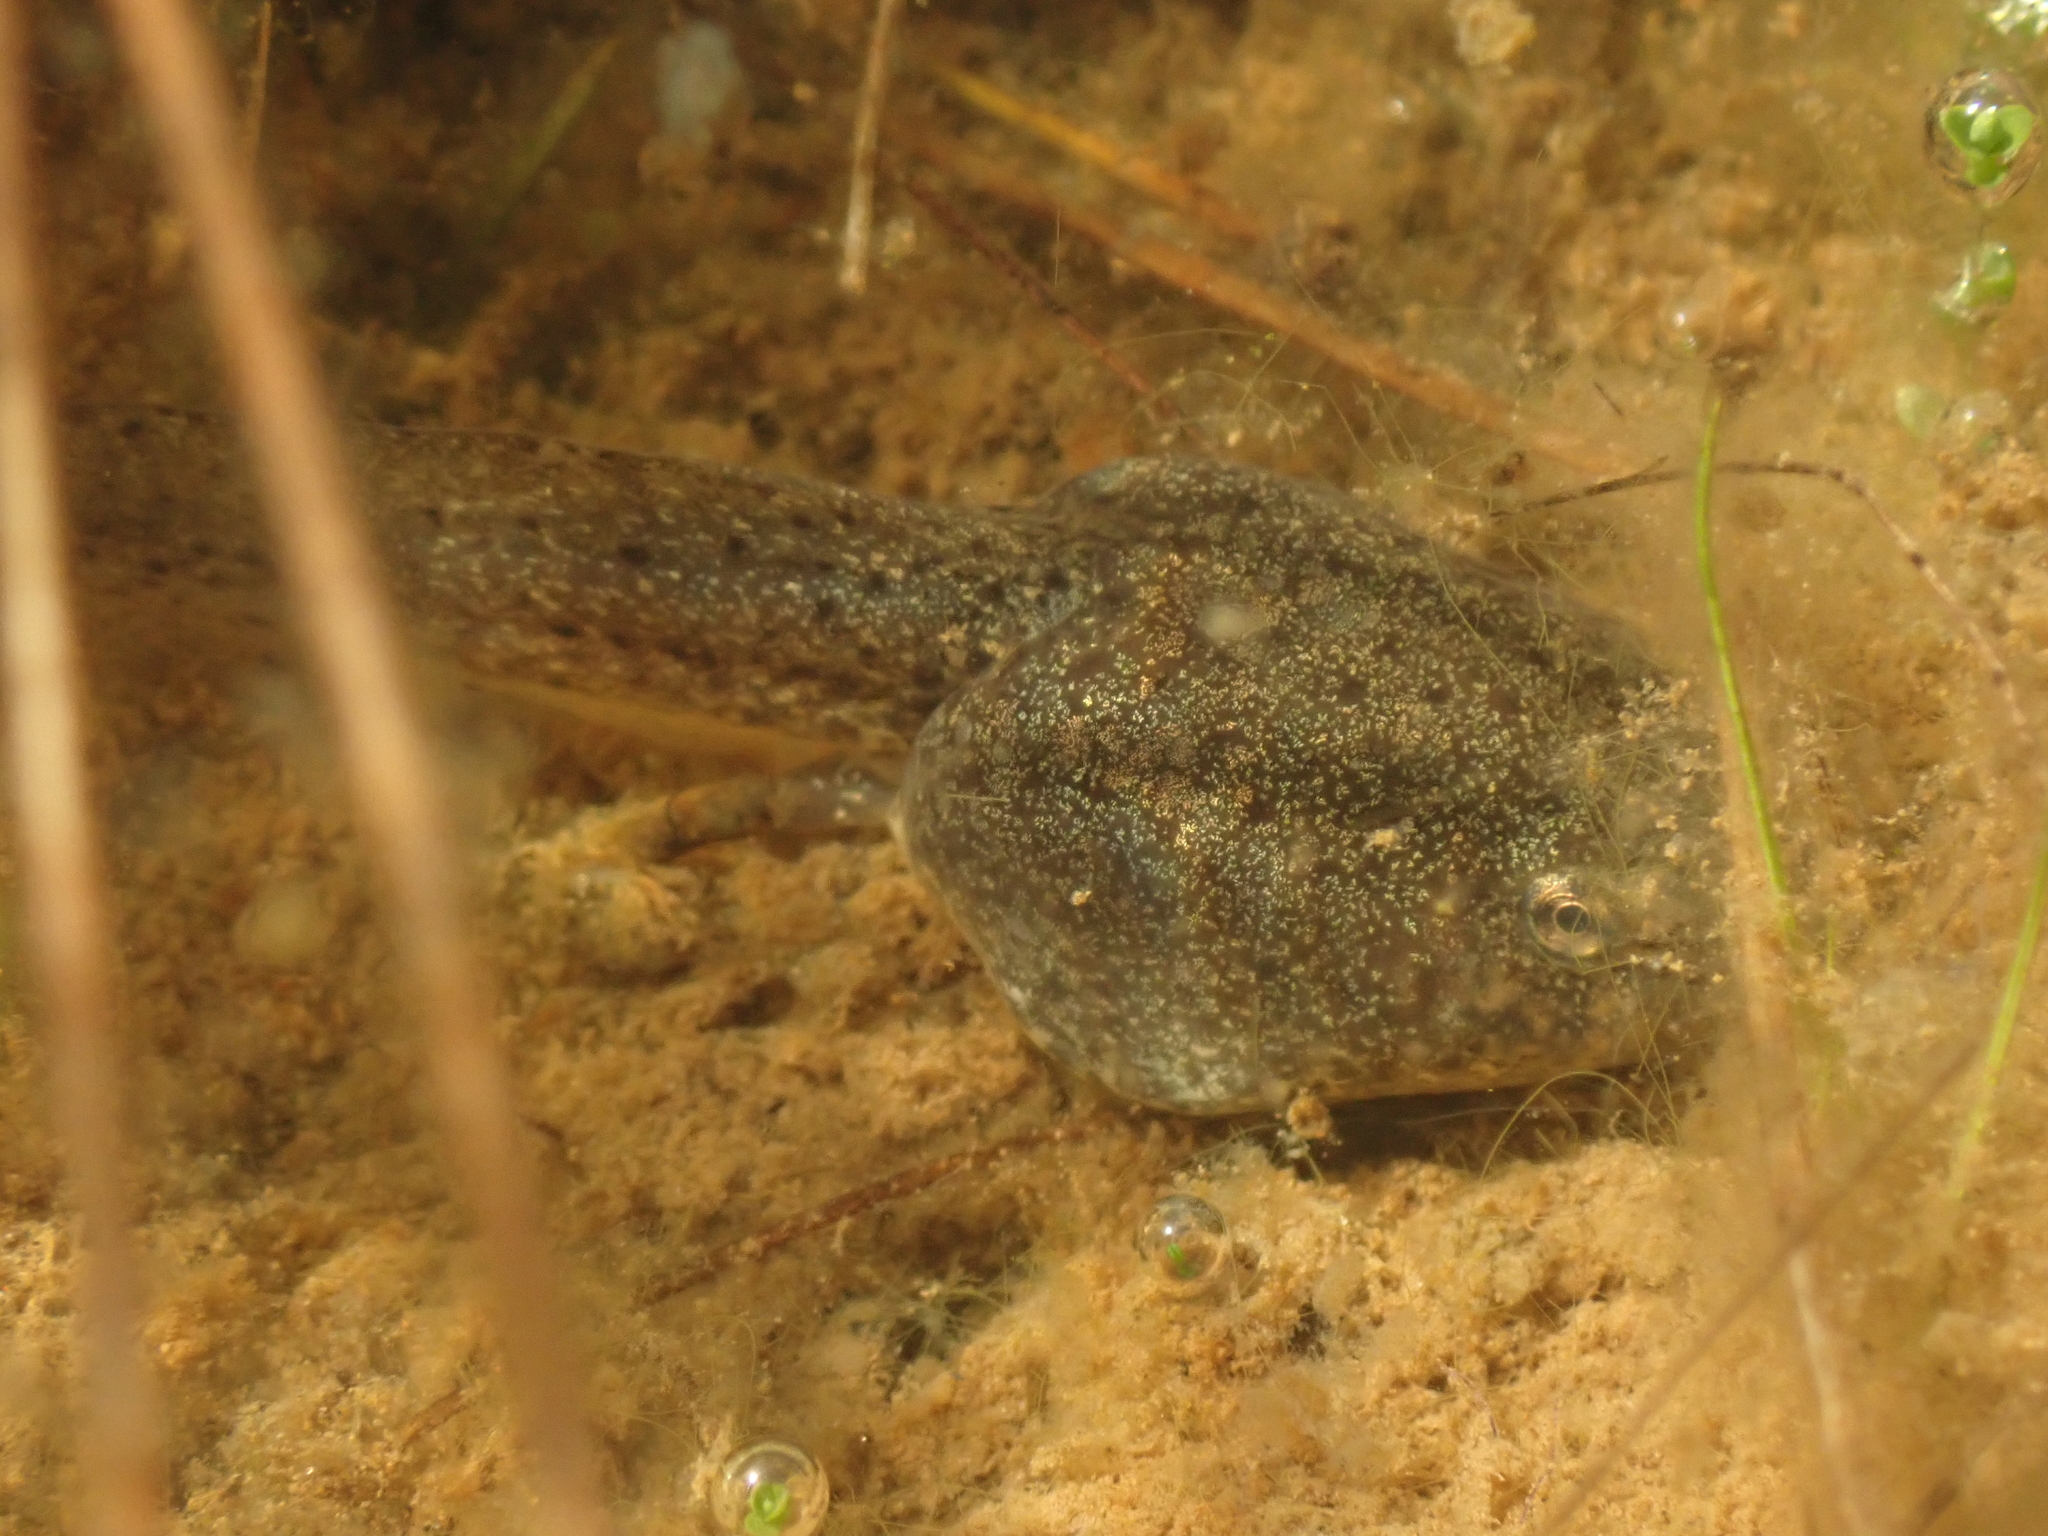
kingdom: Animalia
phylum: Chordata
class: Amphibia
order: Anura
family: Ranidae
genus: Lithobates
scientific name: Lithobates catesbeianus
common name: American bullfrog
